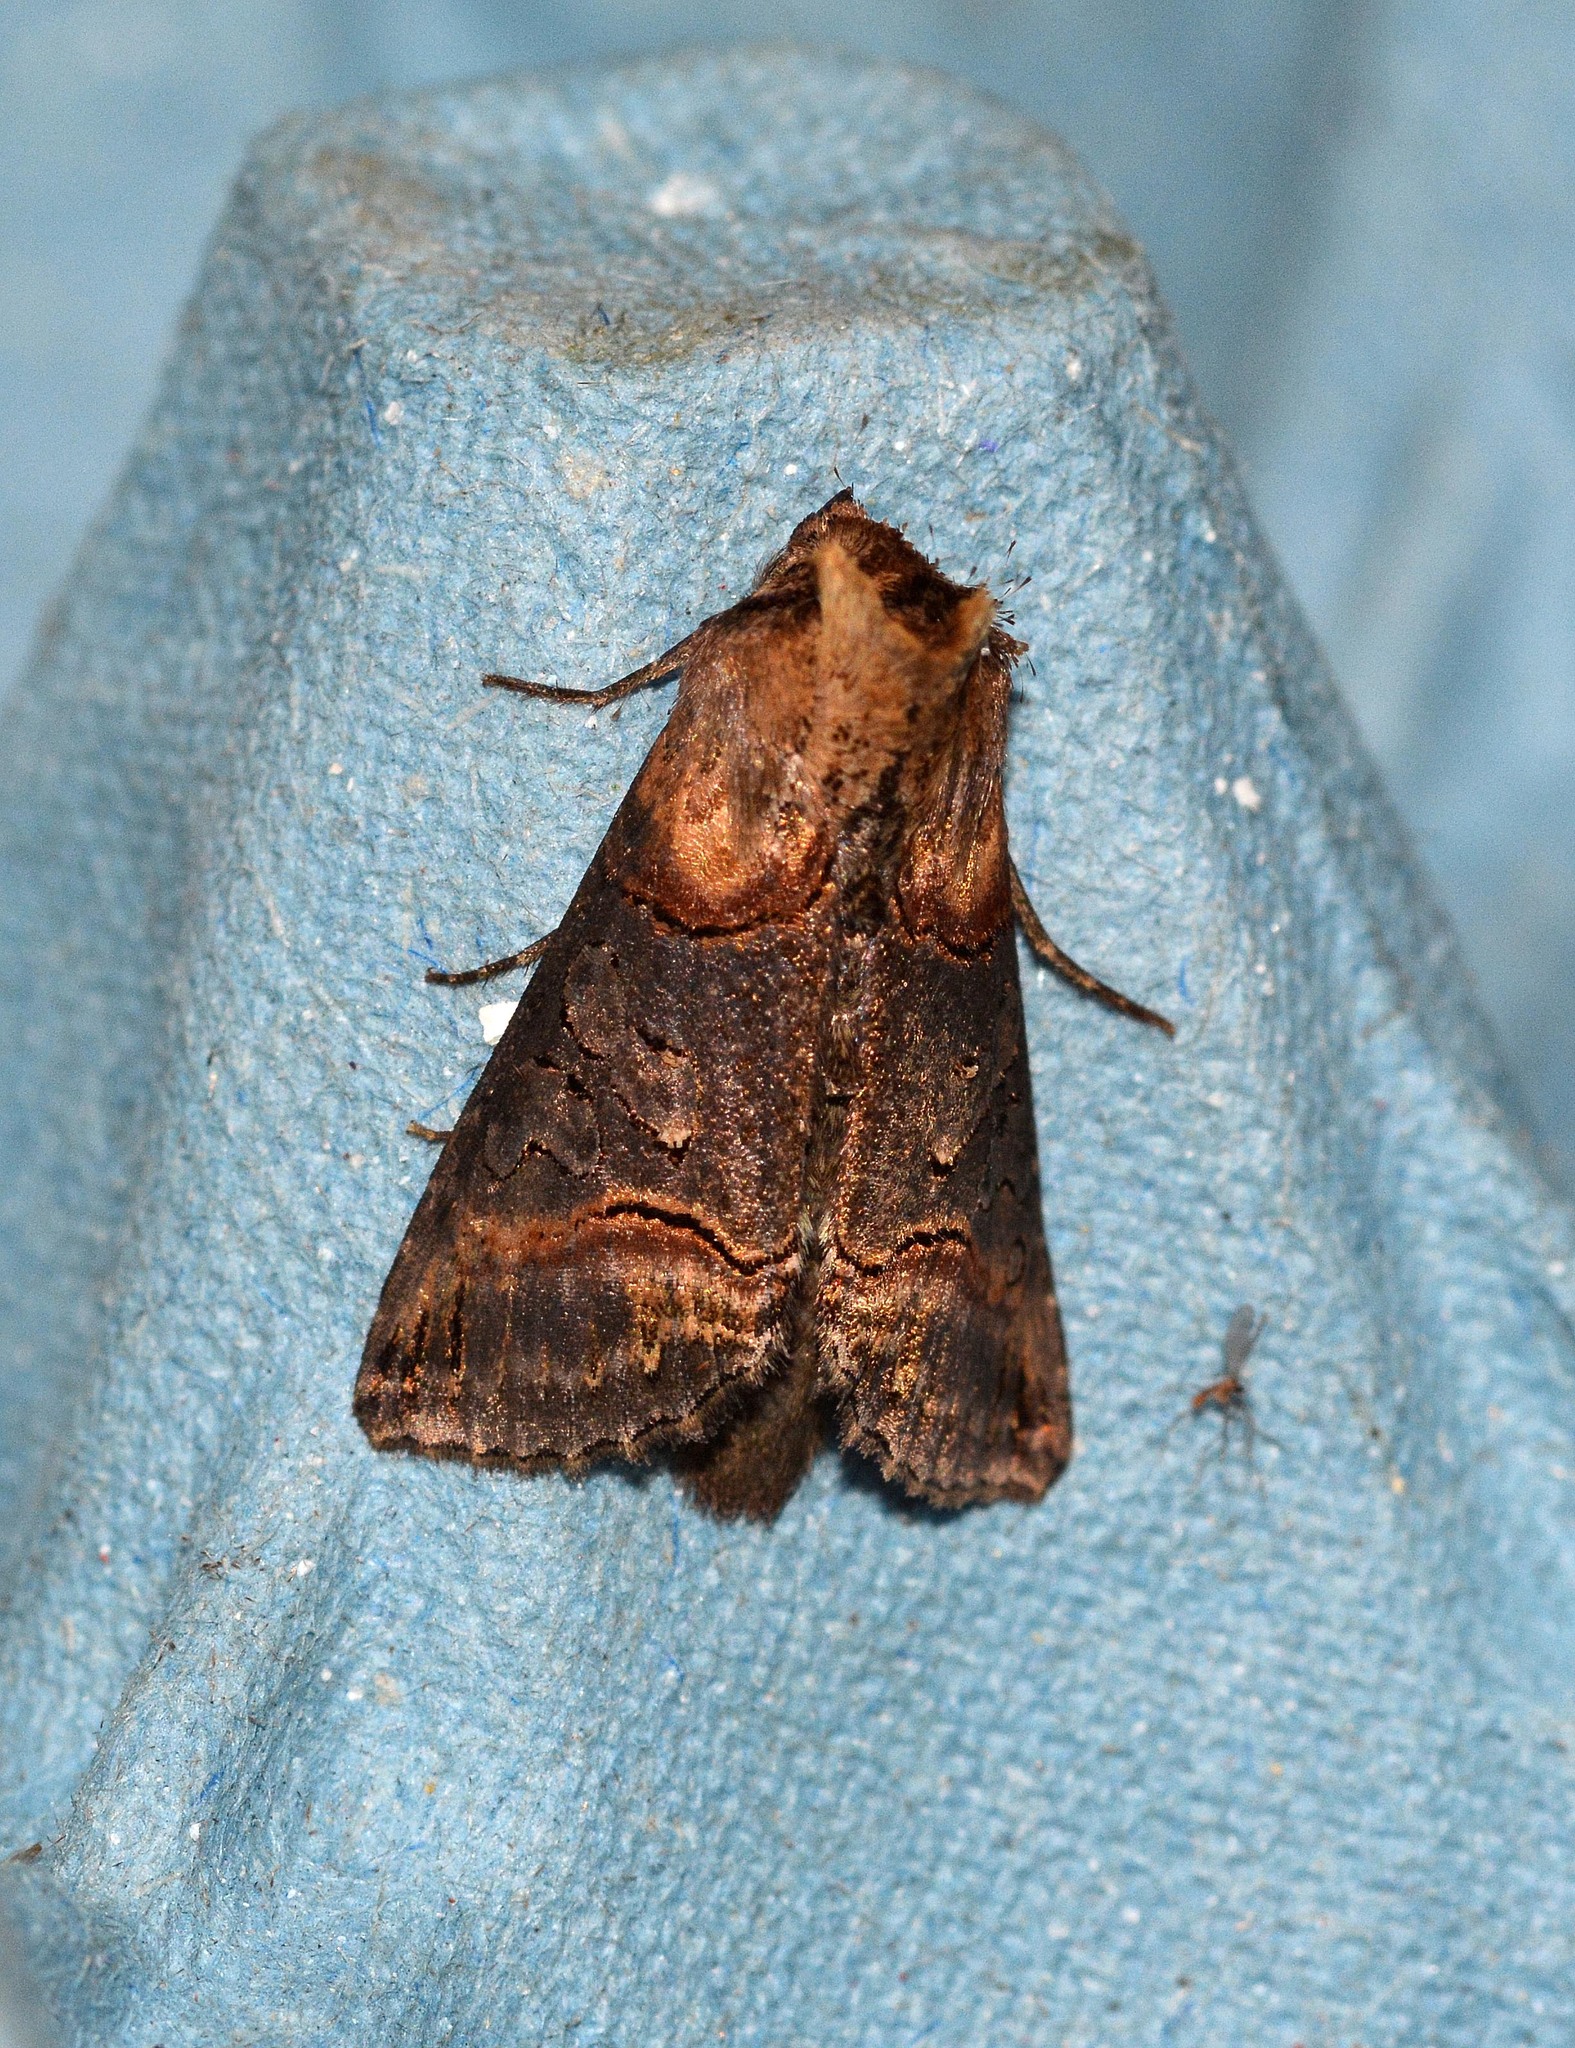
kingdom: Animalia
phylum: Arthropoda
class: Insecta
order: Lepidoptera
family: Noctuidae
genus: Abrostola
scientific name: Abrostola triplasia
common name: Dark spectacle
